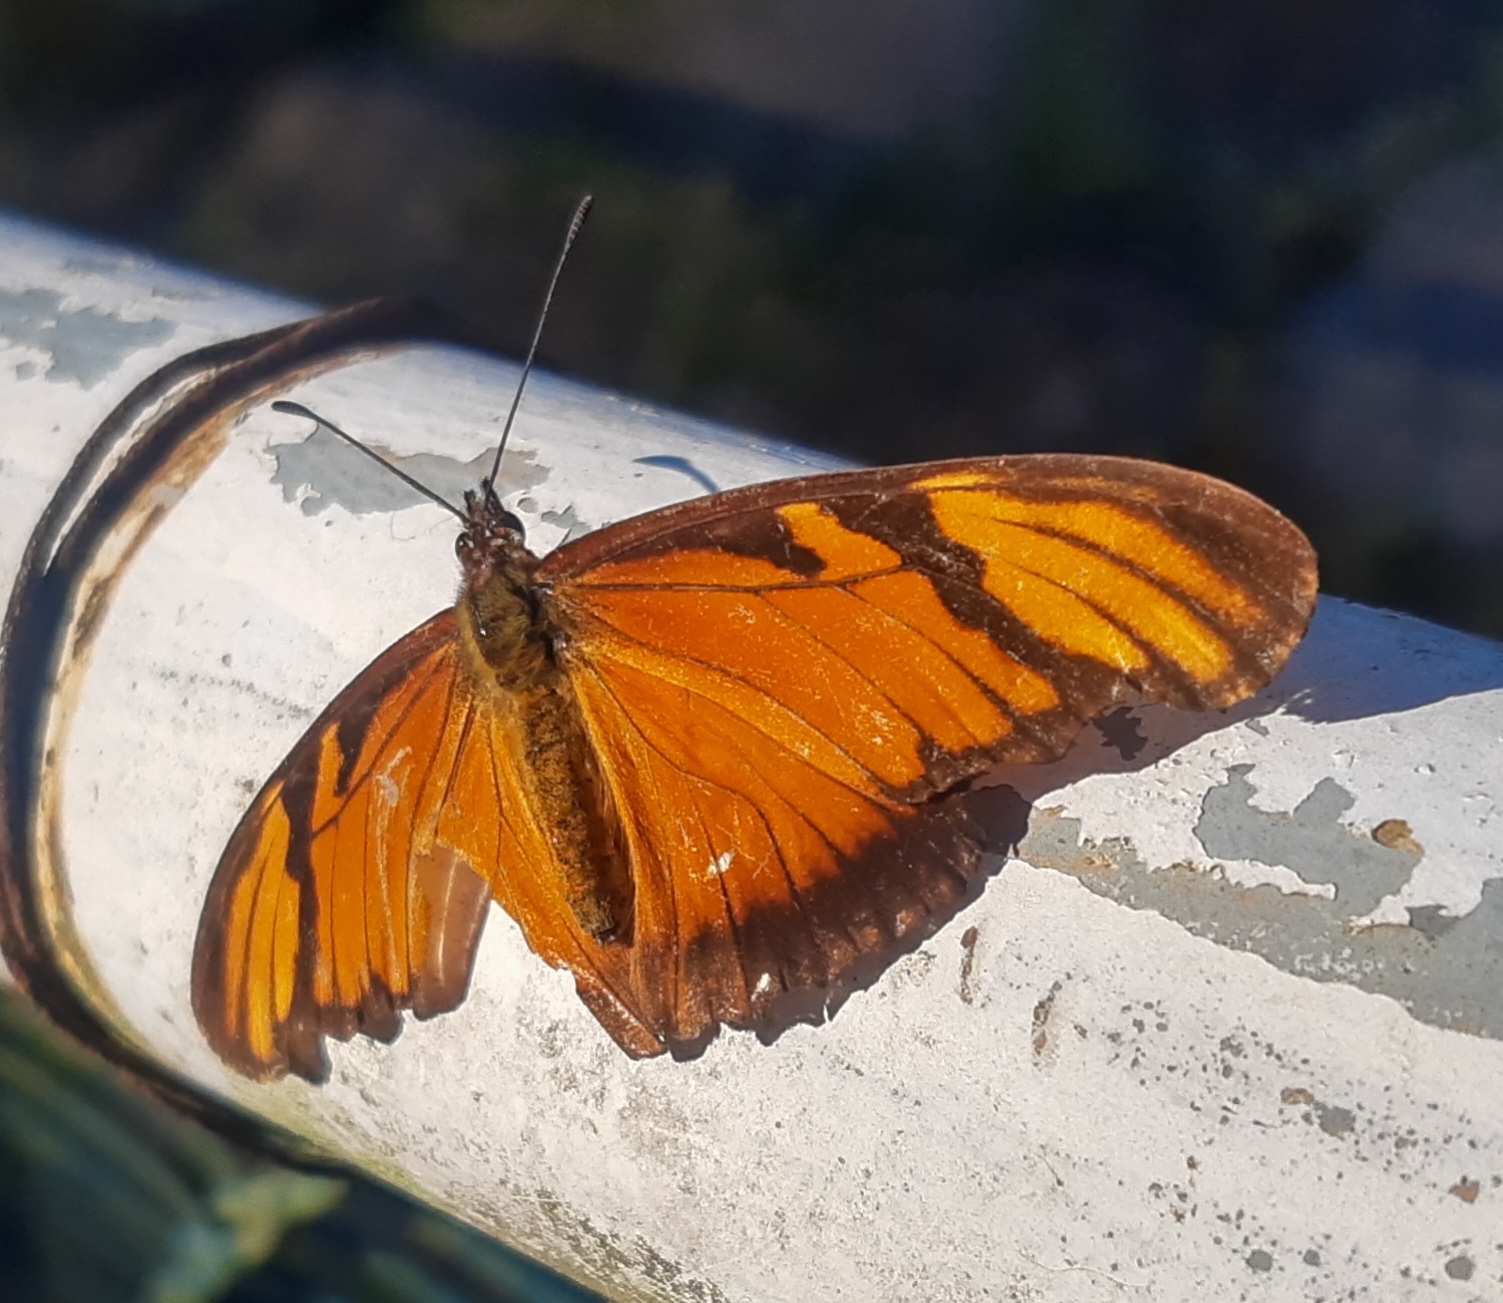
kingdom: Animalia
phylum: Arthropoda
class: Insecta
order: Lepidoptera
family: Nymphalidae
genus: Dione
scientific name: Dione juno
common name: Juno silverspot
